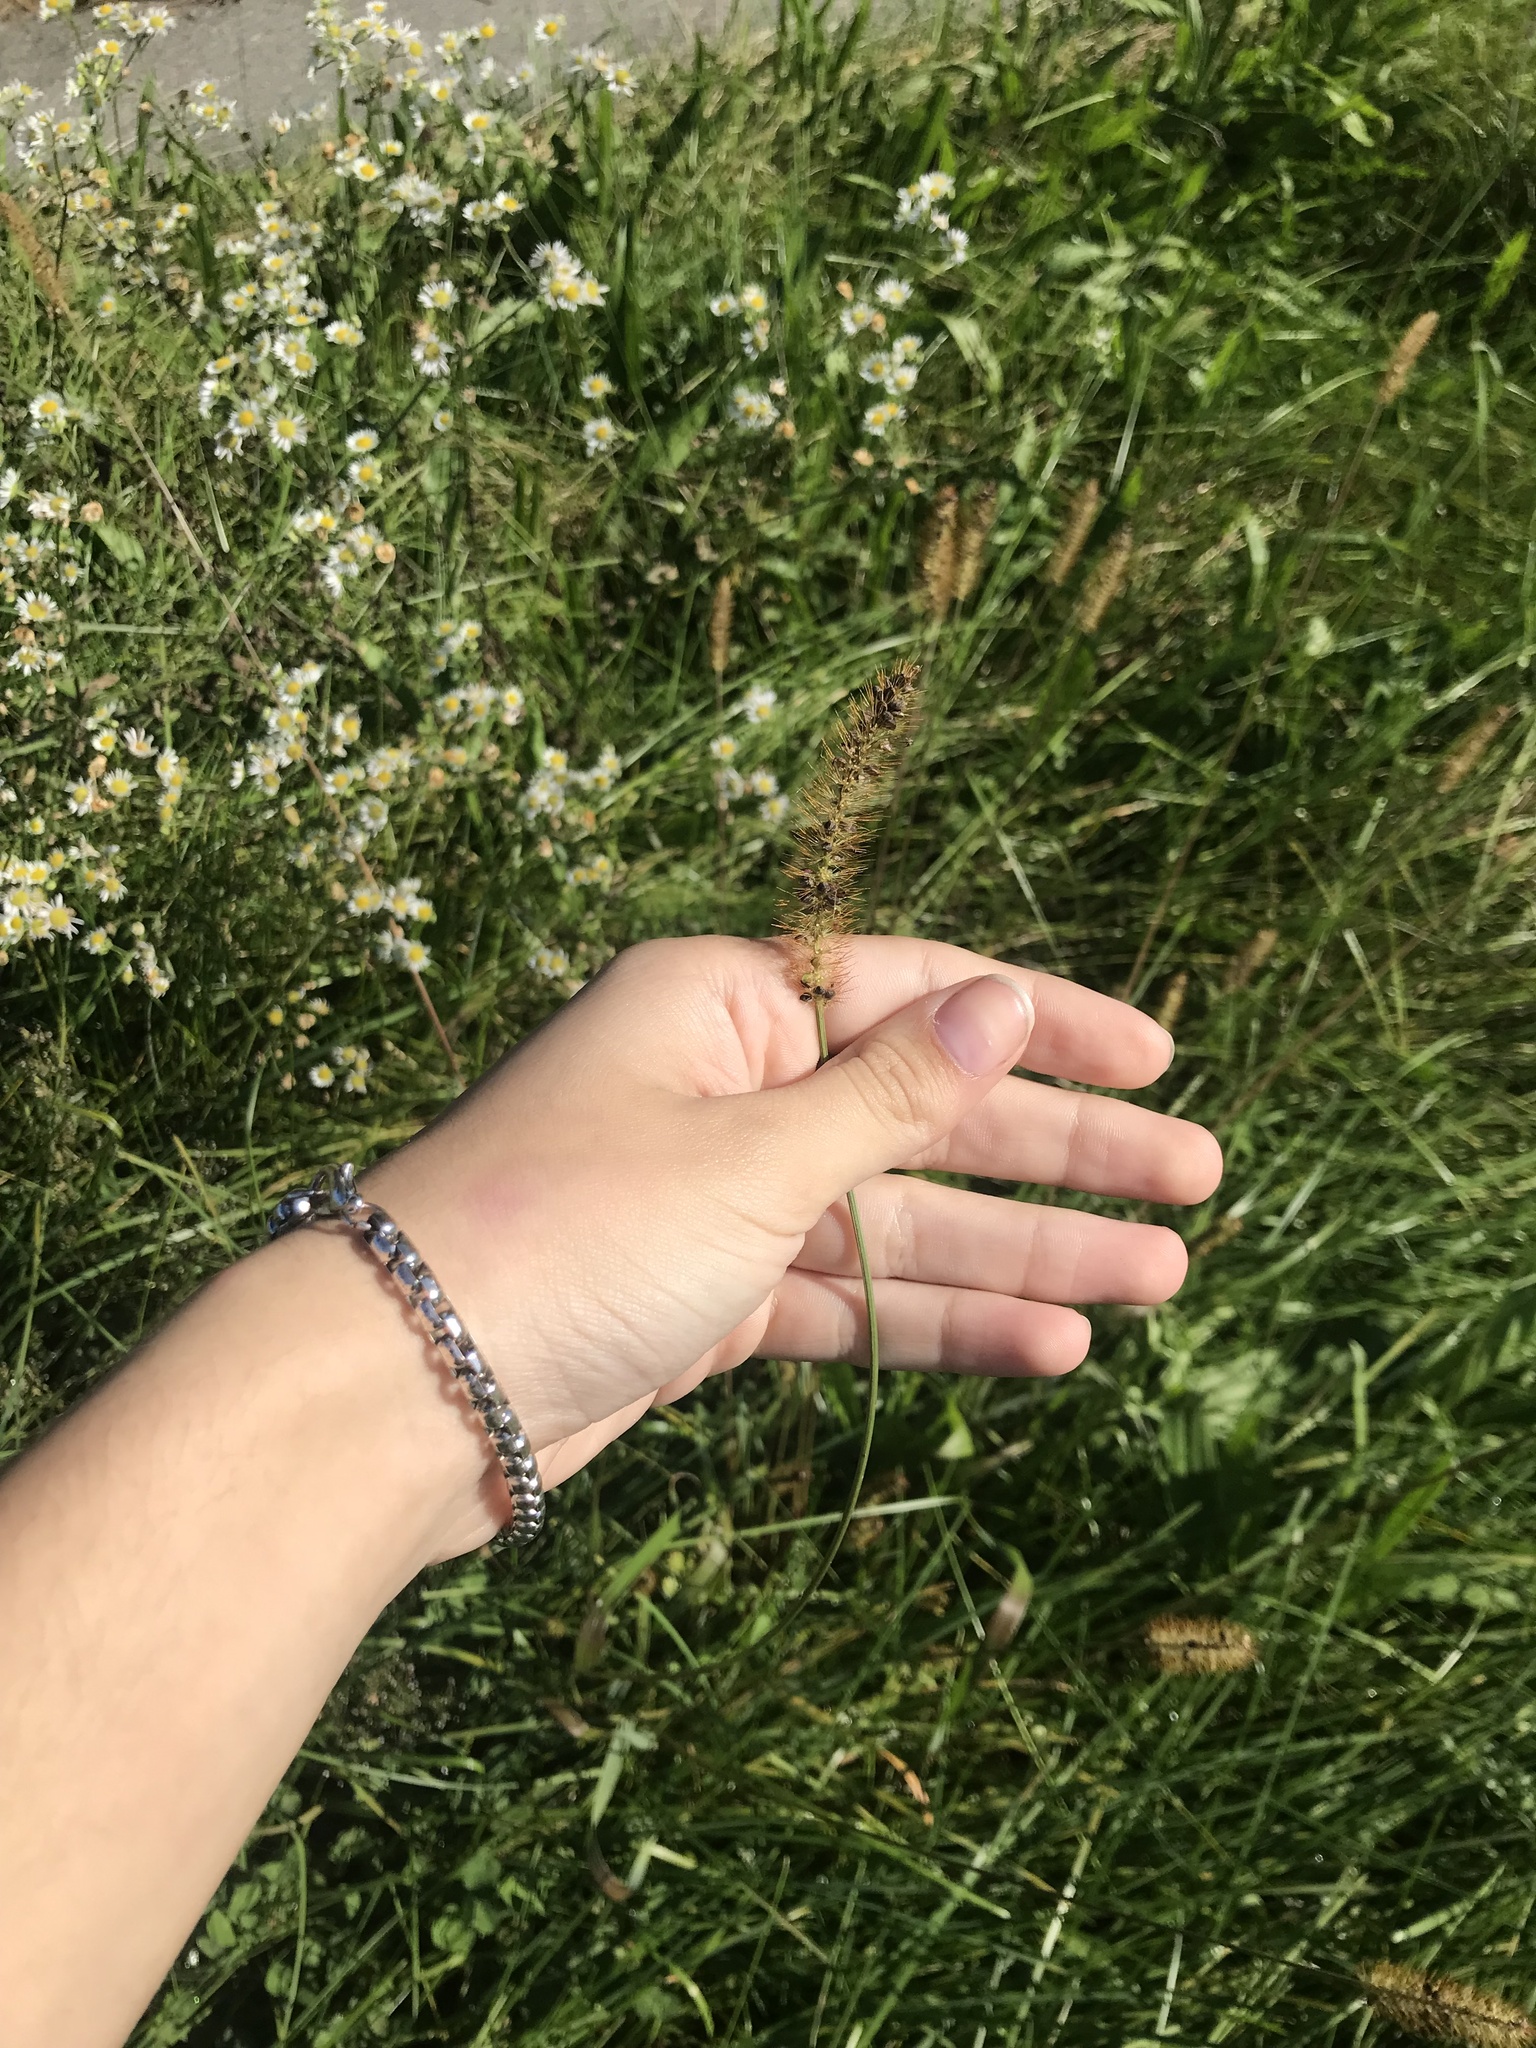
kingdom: Plantae
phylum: Tracheophyta
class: Liliopsida
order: Poales
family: Poaceae
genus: Setaria
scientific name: Setaria pumila
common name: Yellow bristle-grass
